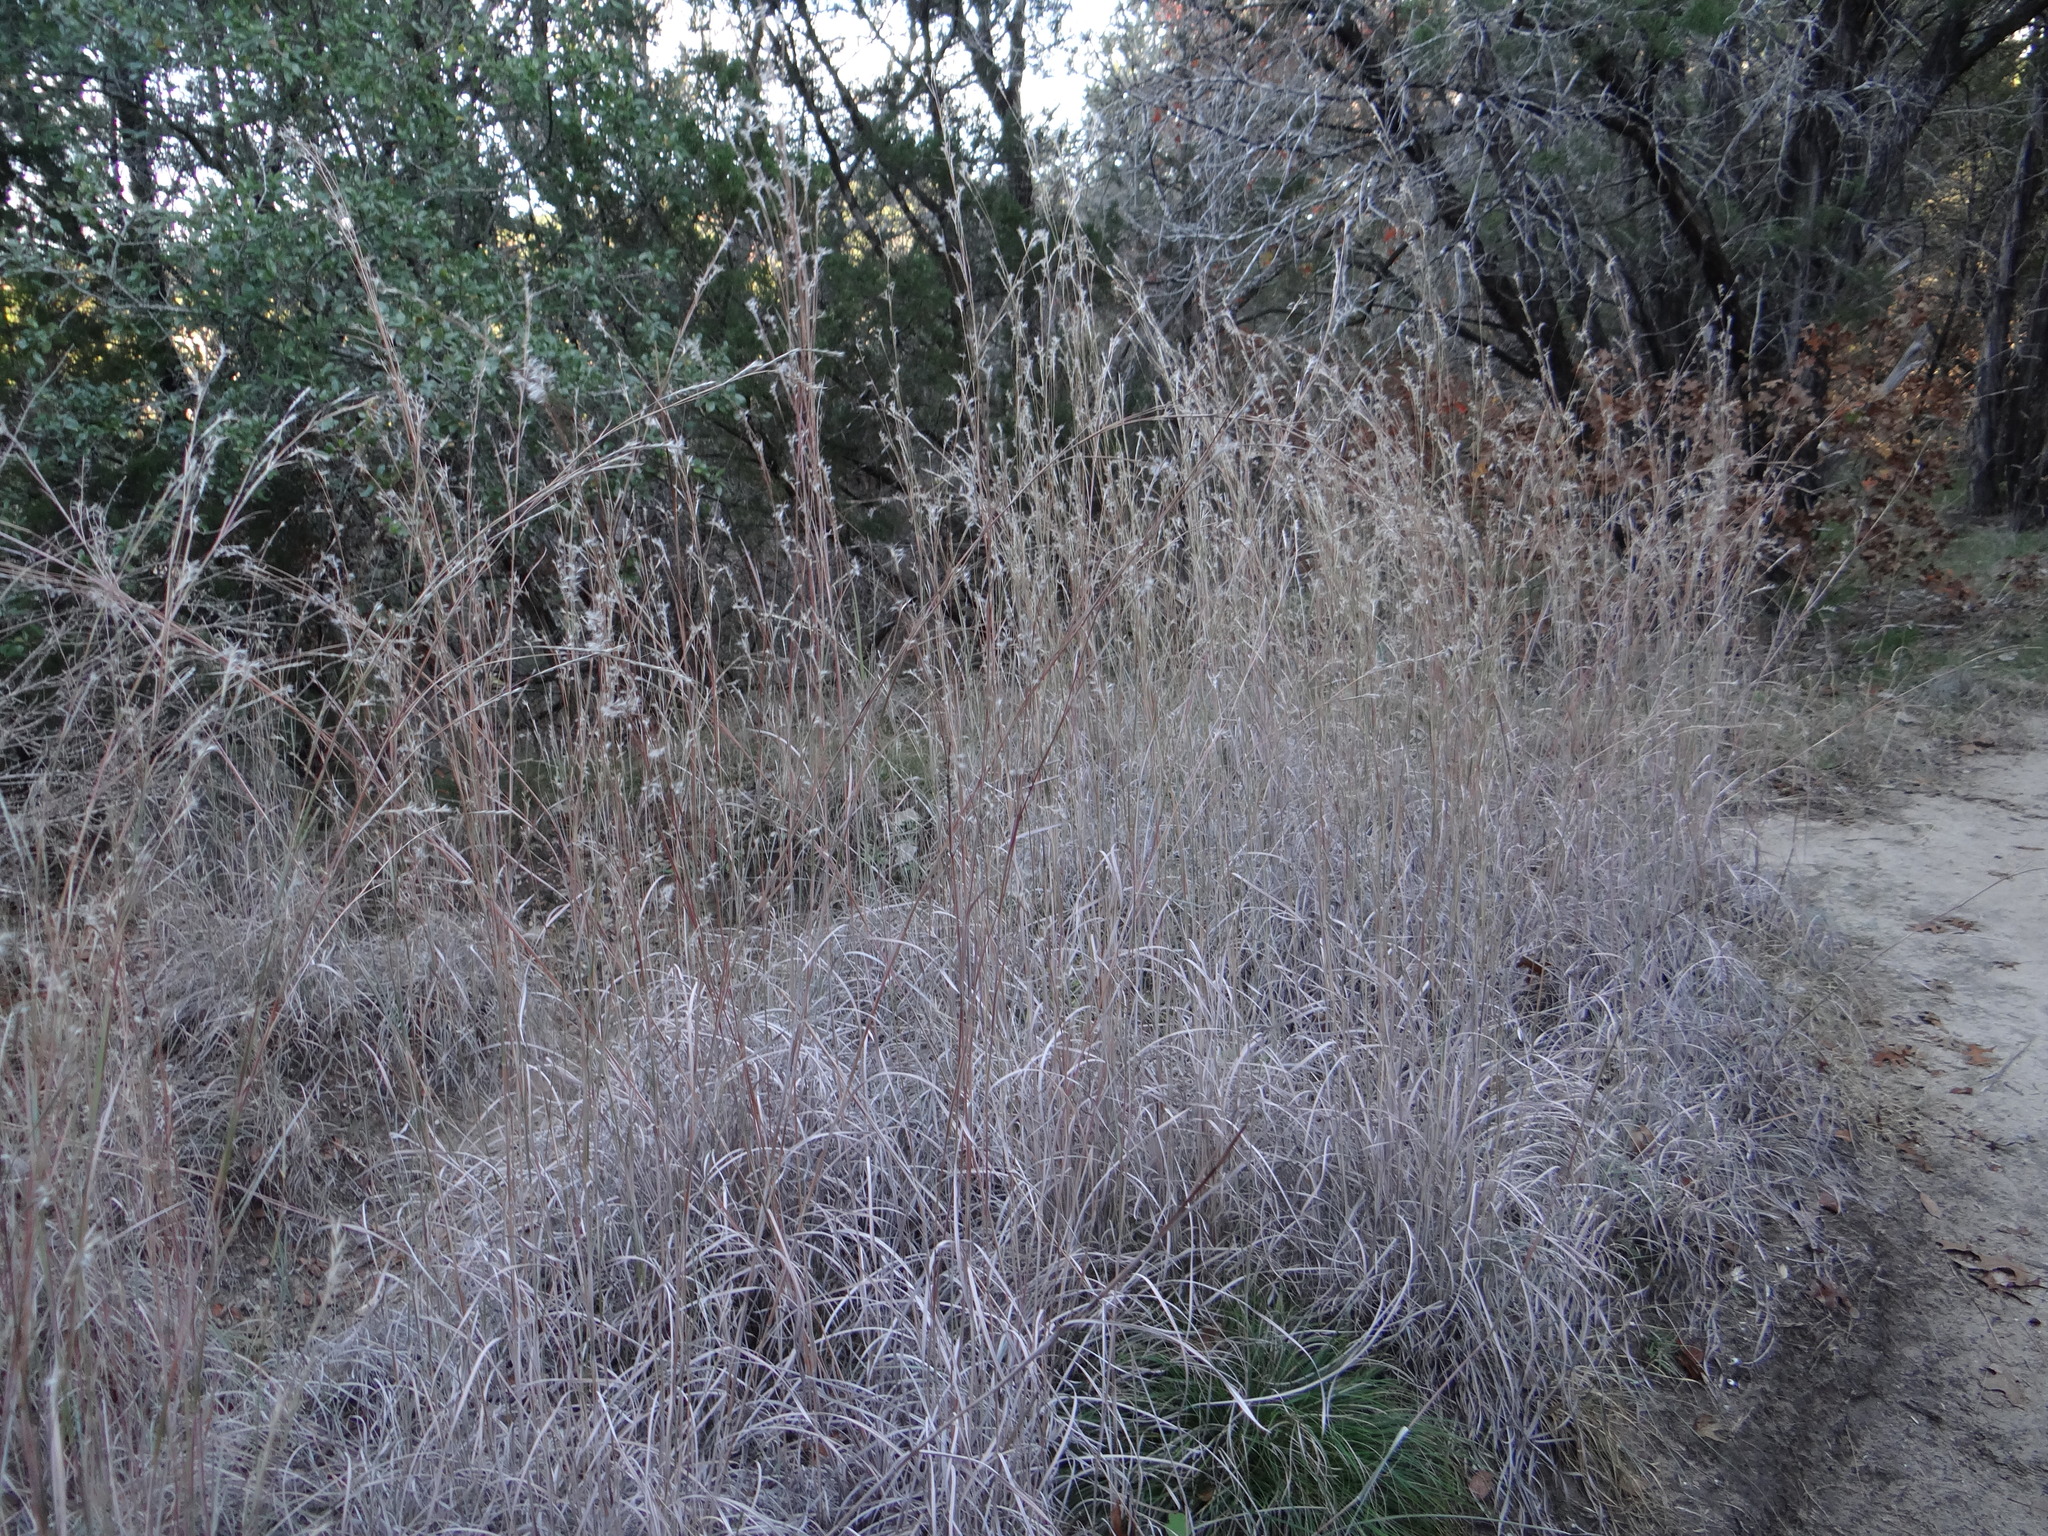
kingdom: Plantae
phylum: Tracheophyta
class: Liliopsida
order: Poales
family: Poaceae
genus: Schizachyrium
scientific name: Schizachyrium scoparium
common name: Little bluestem
